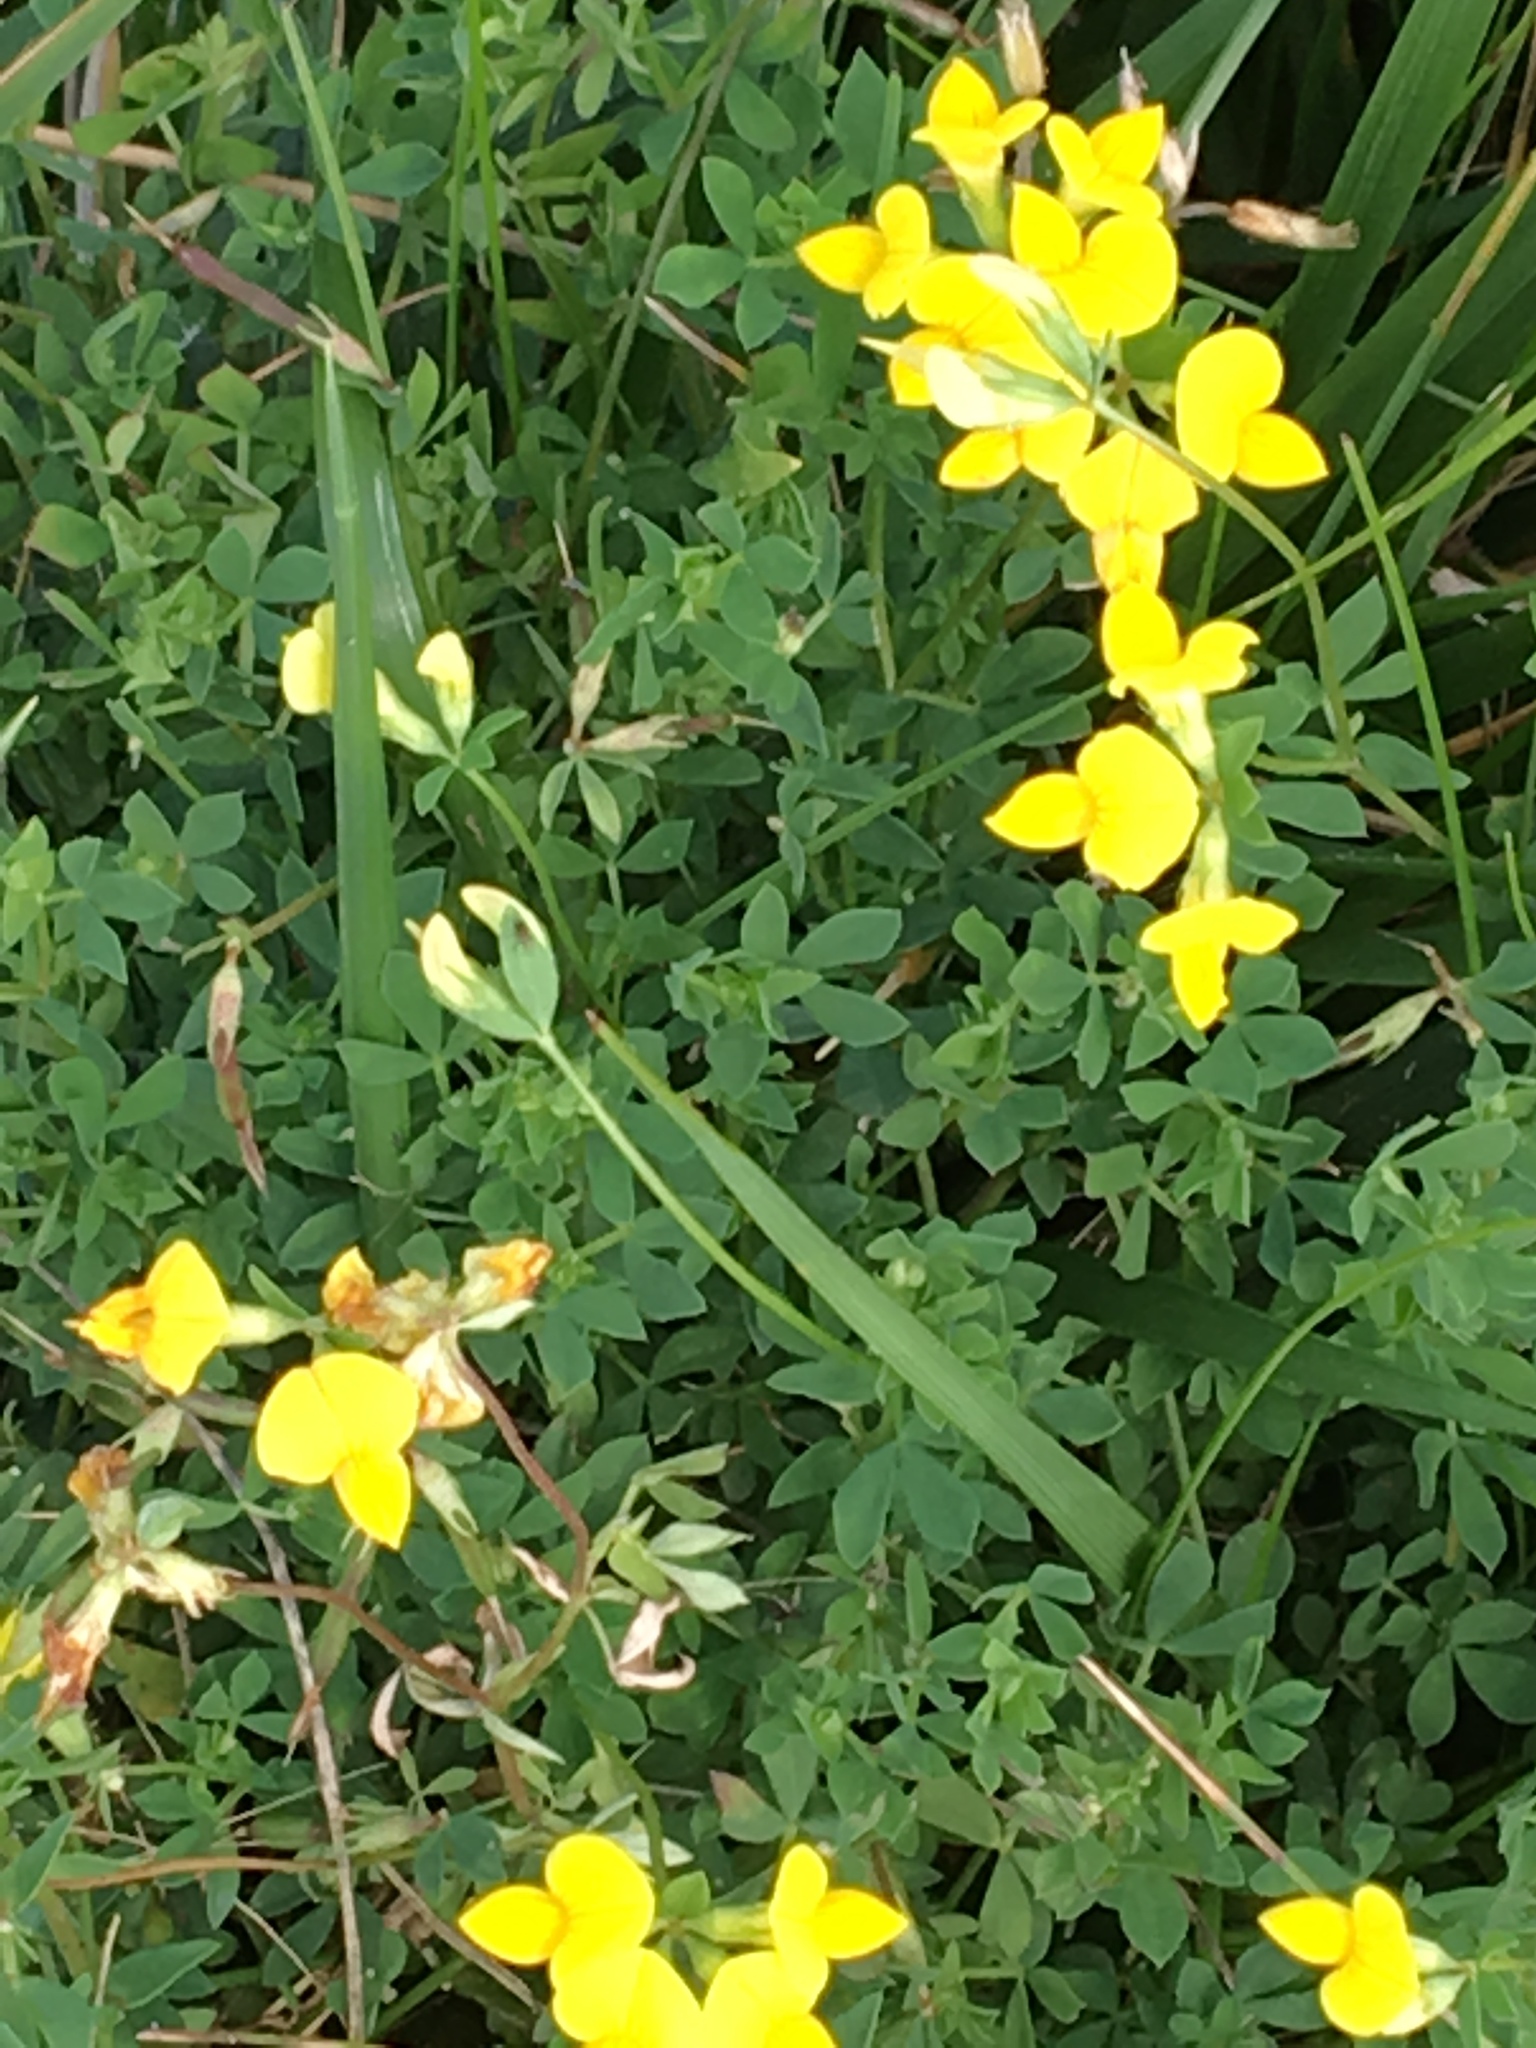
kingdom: Plantae
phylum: Tracheophyta
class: Magnoliopsida
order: Fabales
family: Fabaceae
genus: Lotus
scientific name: Lotus corniculatus
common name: Common bird's-foot-trefoil
